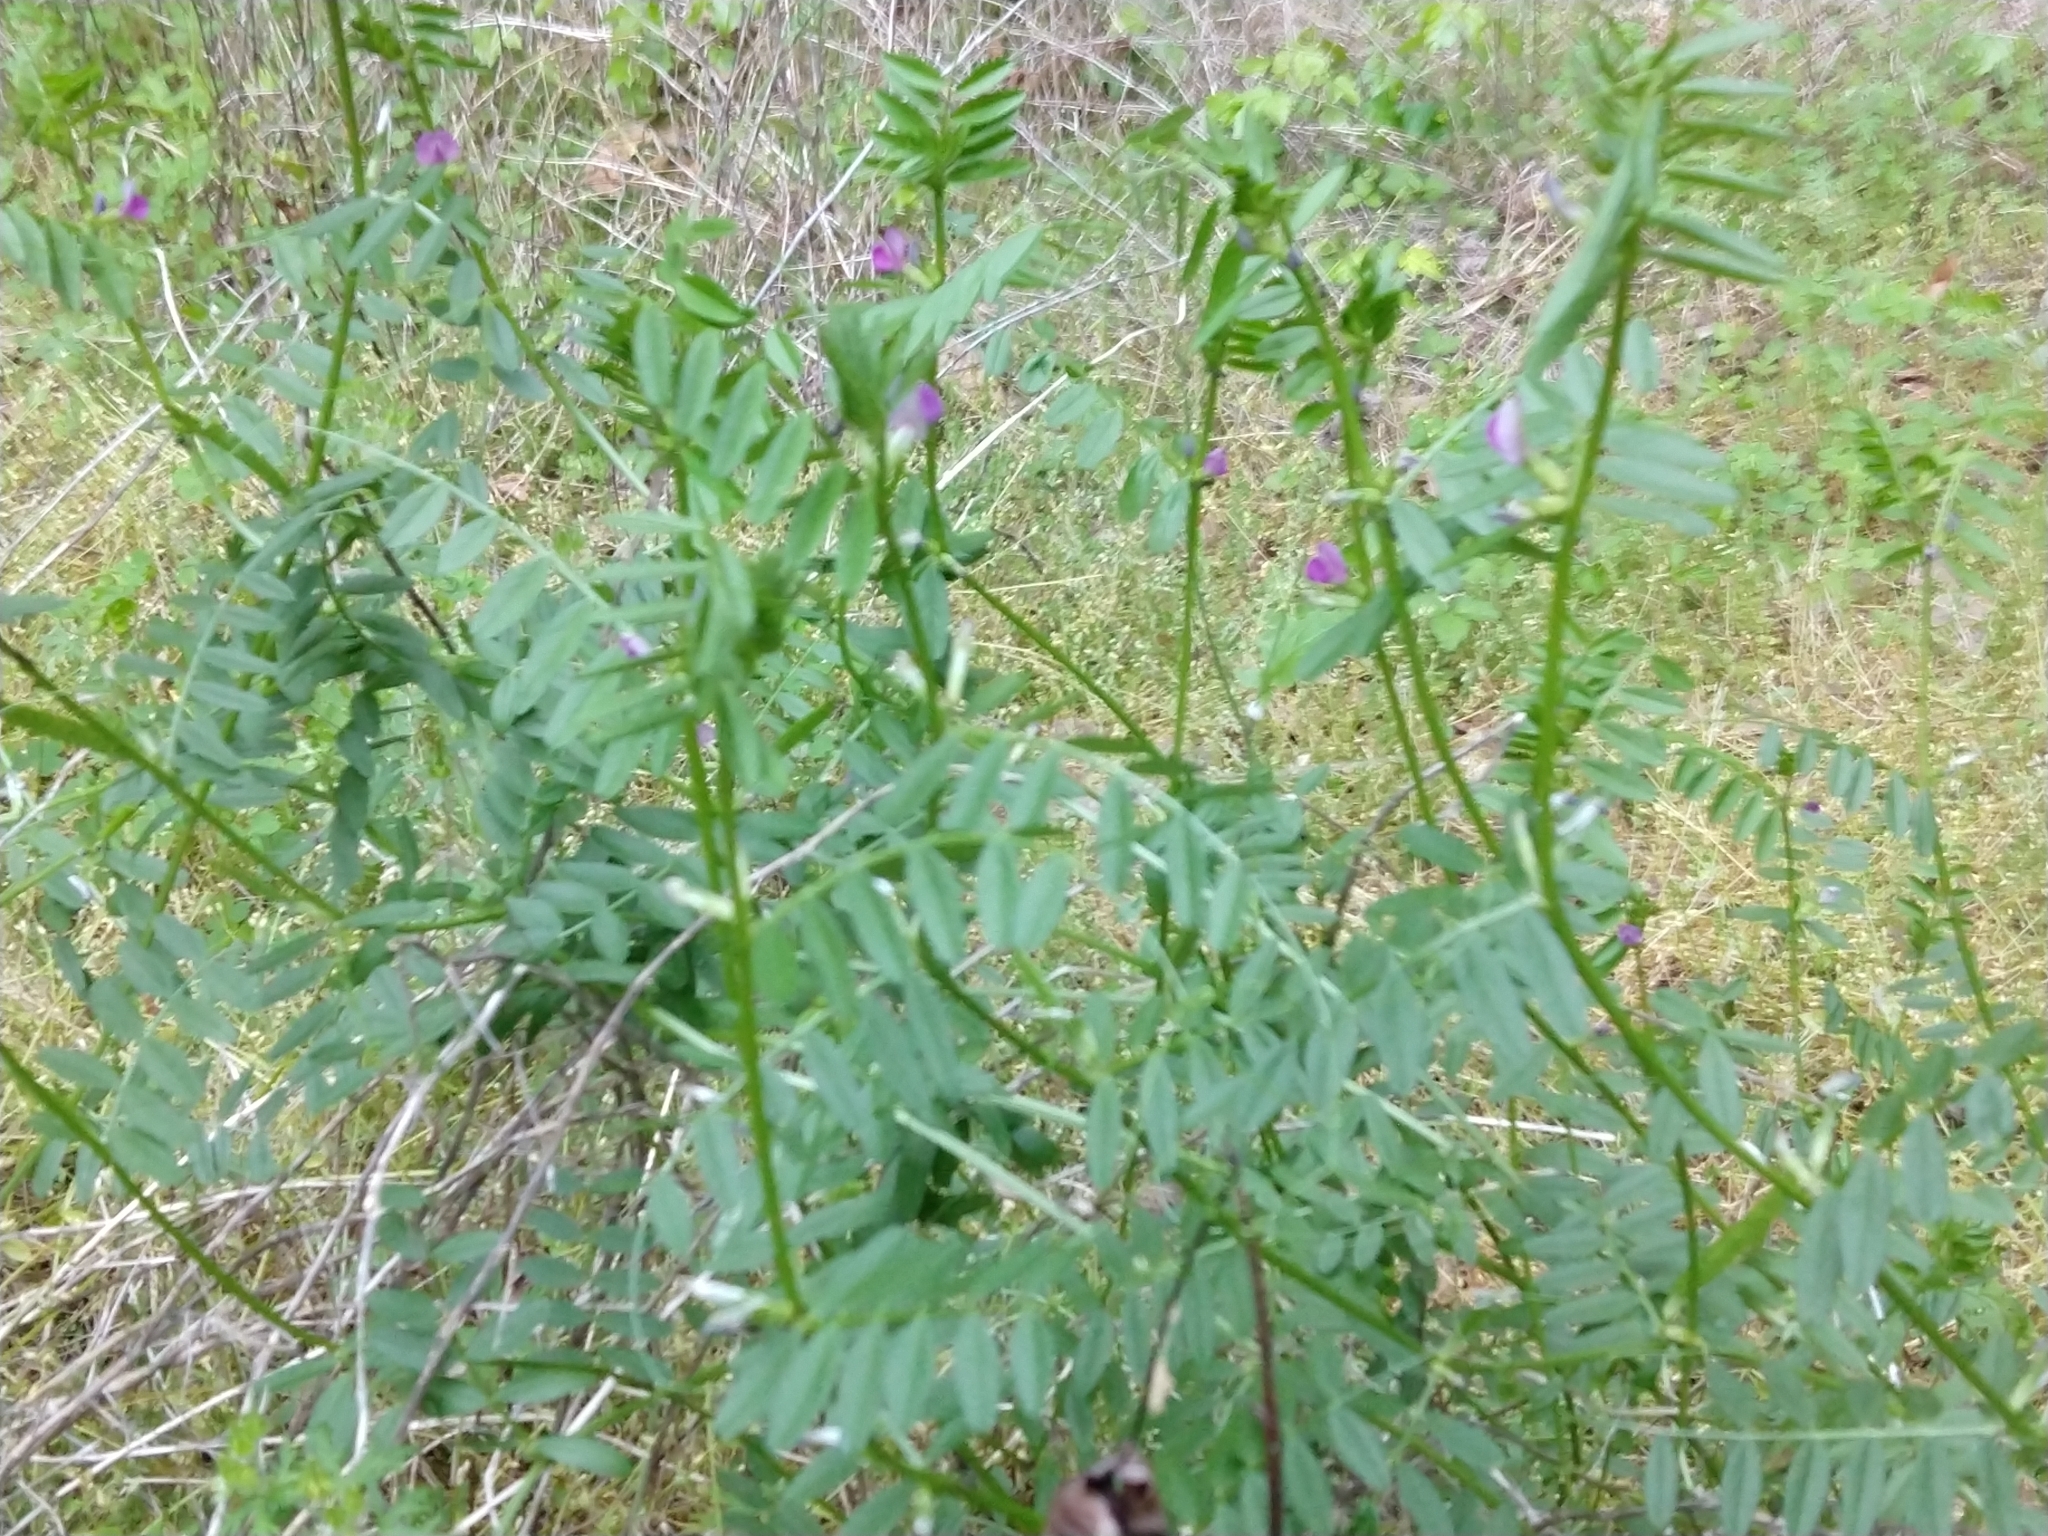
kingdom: Plantae
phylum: Tracheophyta
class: Magnoliopsida
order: Fabales
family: Fabaceae
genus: Vicia
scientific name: Vicia sativa
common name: Garden vetch
